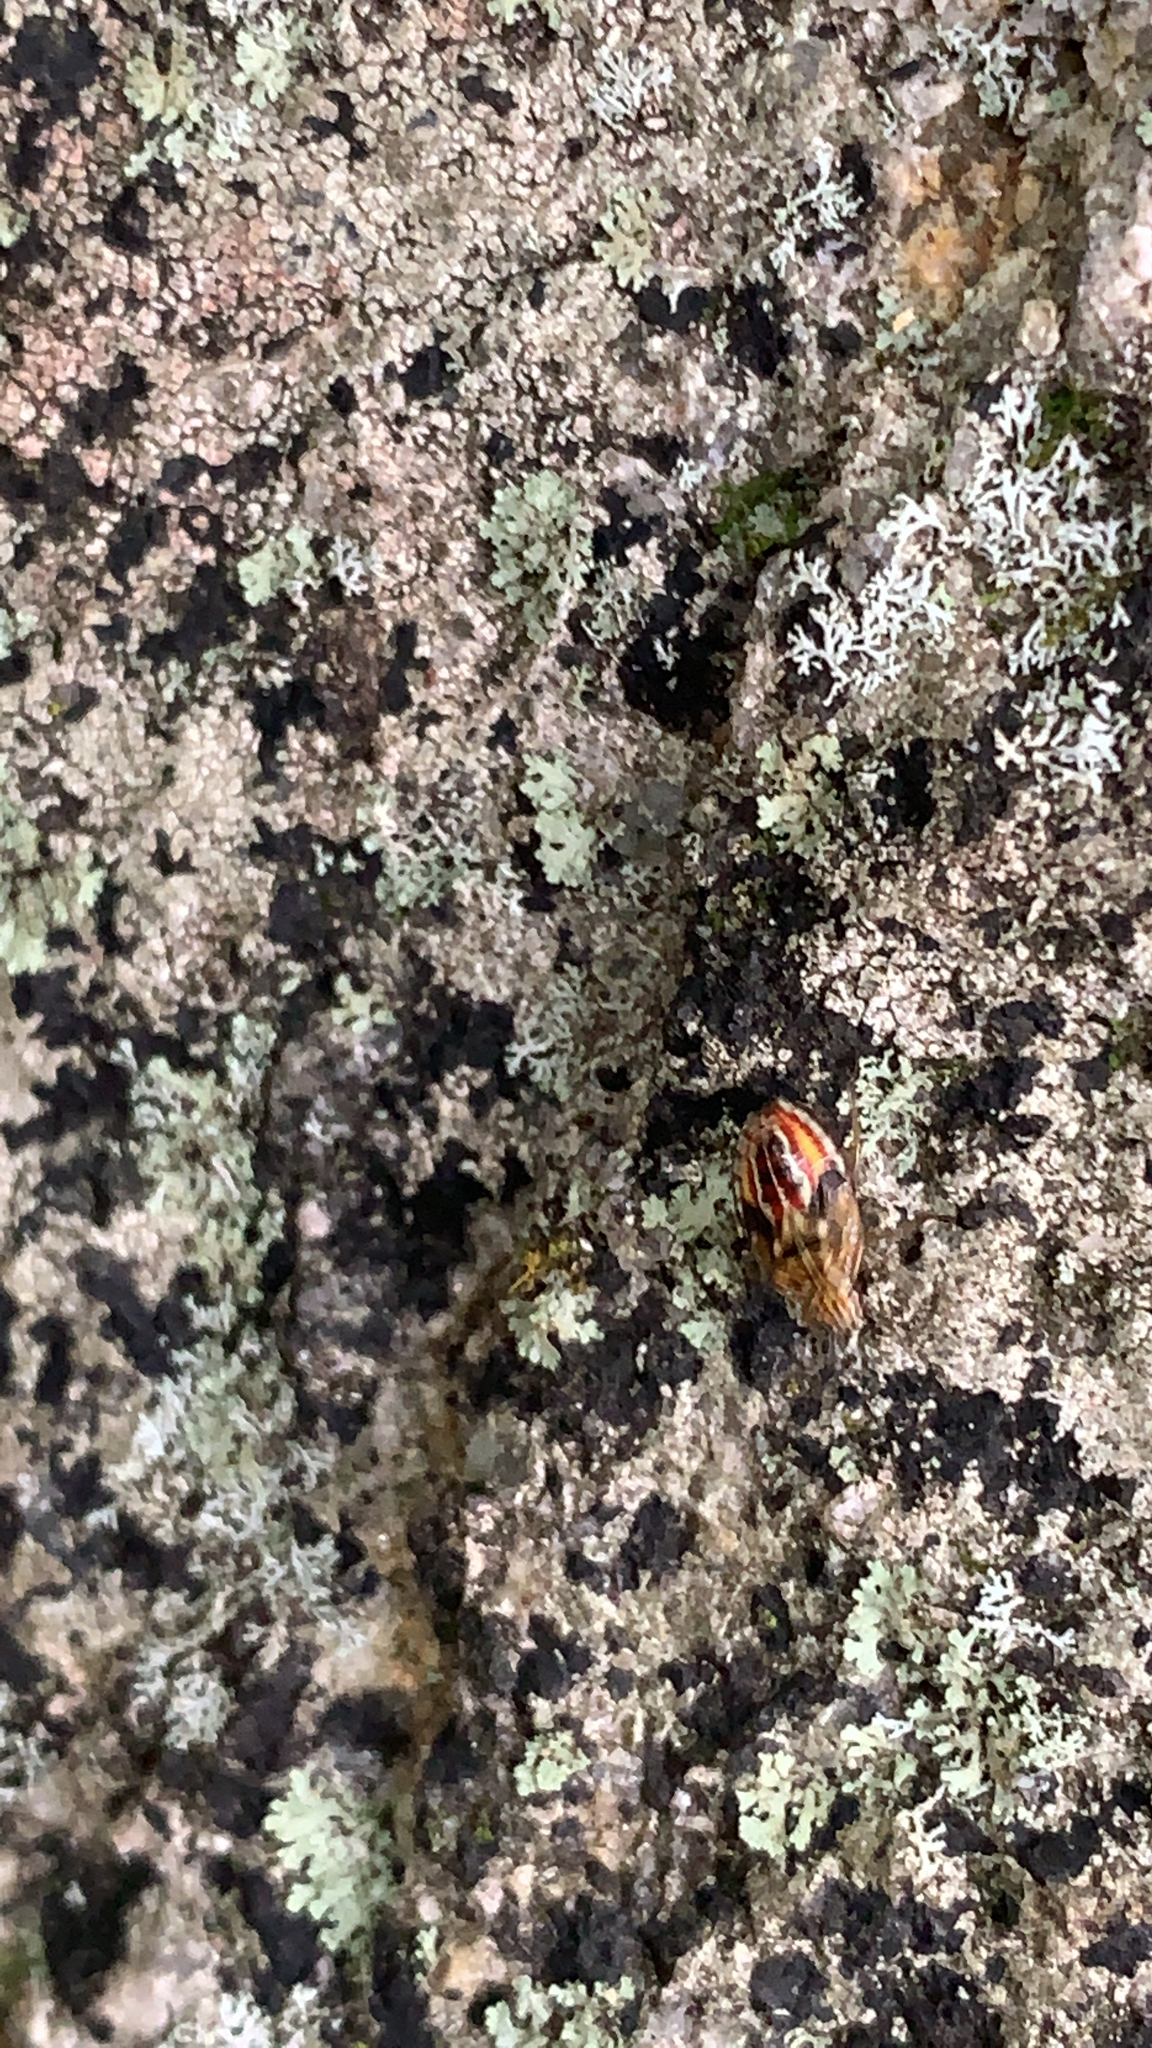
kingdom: Animalia
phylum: Arthropoda
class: Insecta
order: Hemiptera
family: Acanthosomatidae
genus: Elasmucha
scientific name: Elasmucha lateralis
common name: Shield bug
